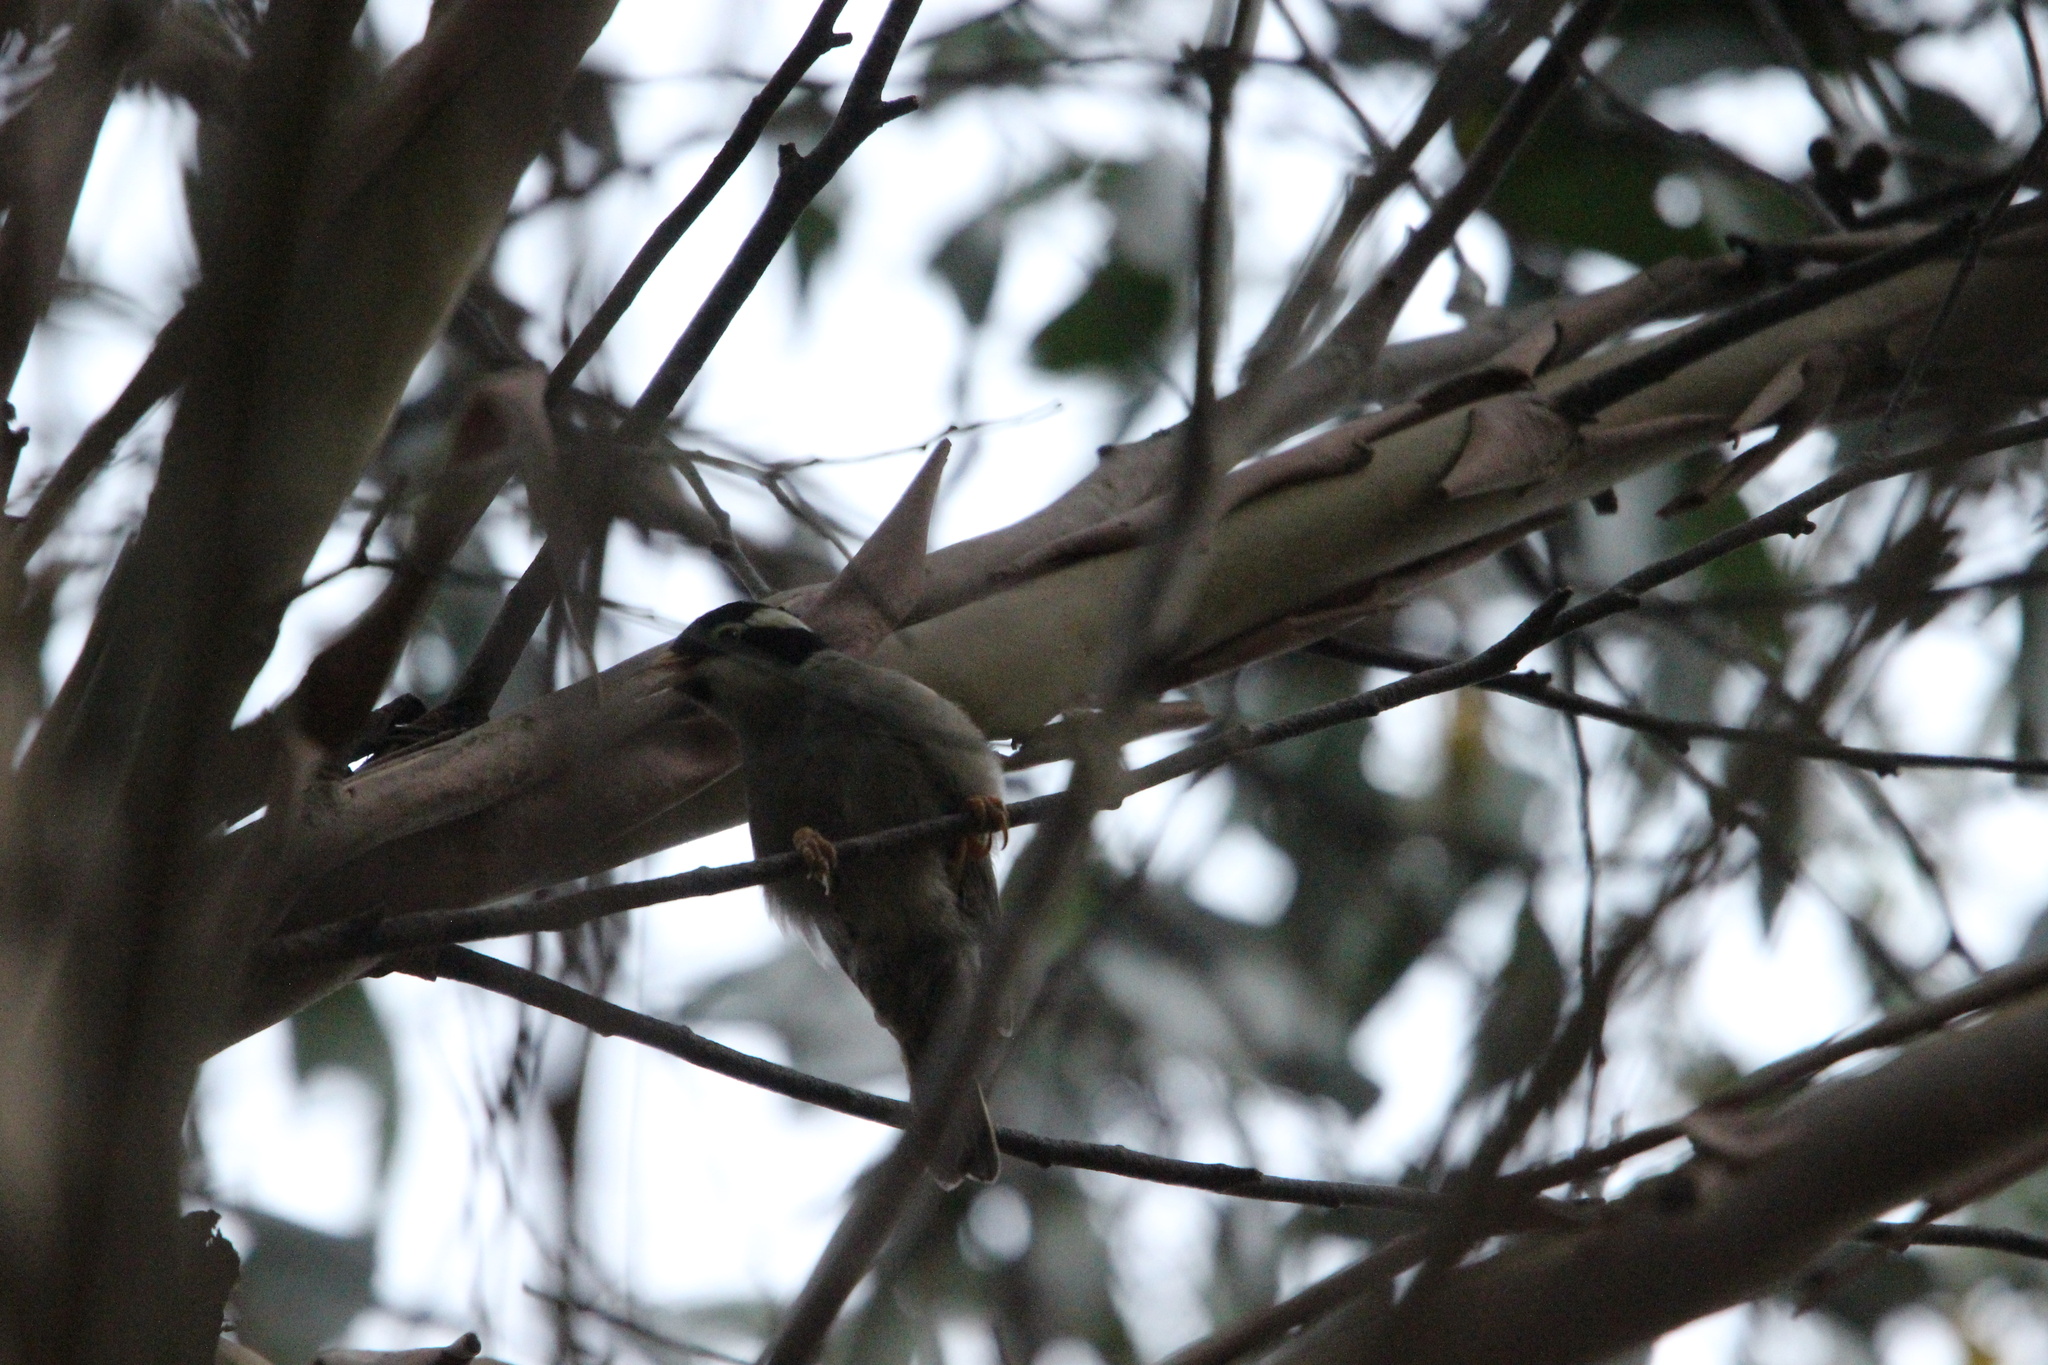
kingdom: Animalia
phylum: Chordata
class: Aves
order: Passeriformes
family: Meliphagidae
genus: Melithreptus
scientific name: Melithreptus validirostris
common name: Strong-billed honeyeater
